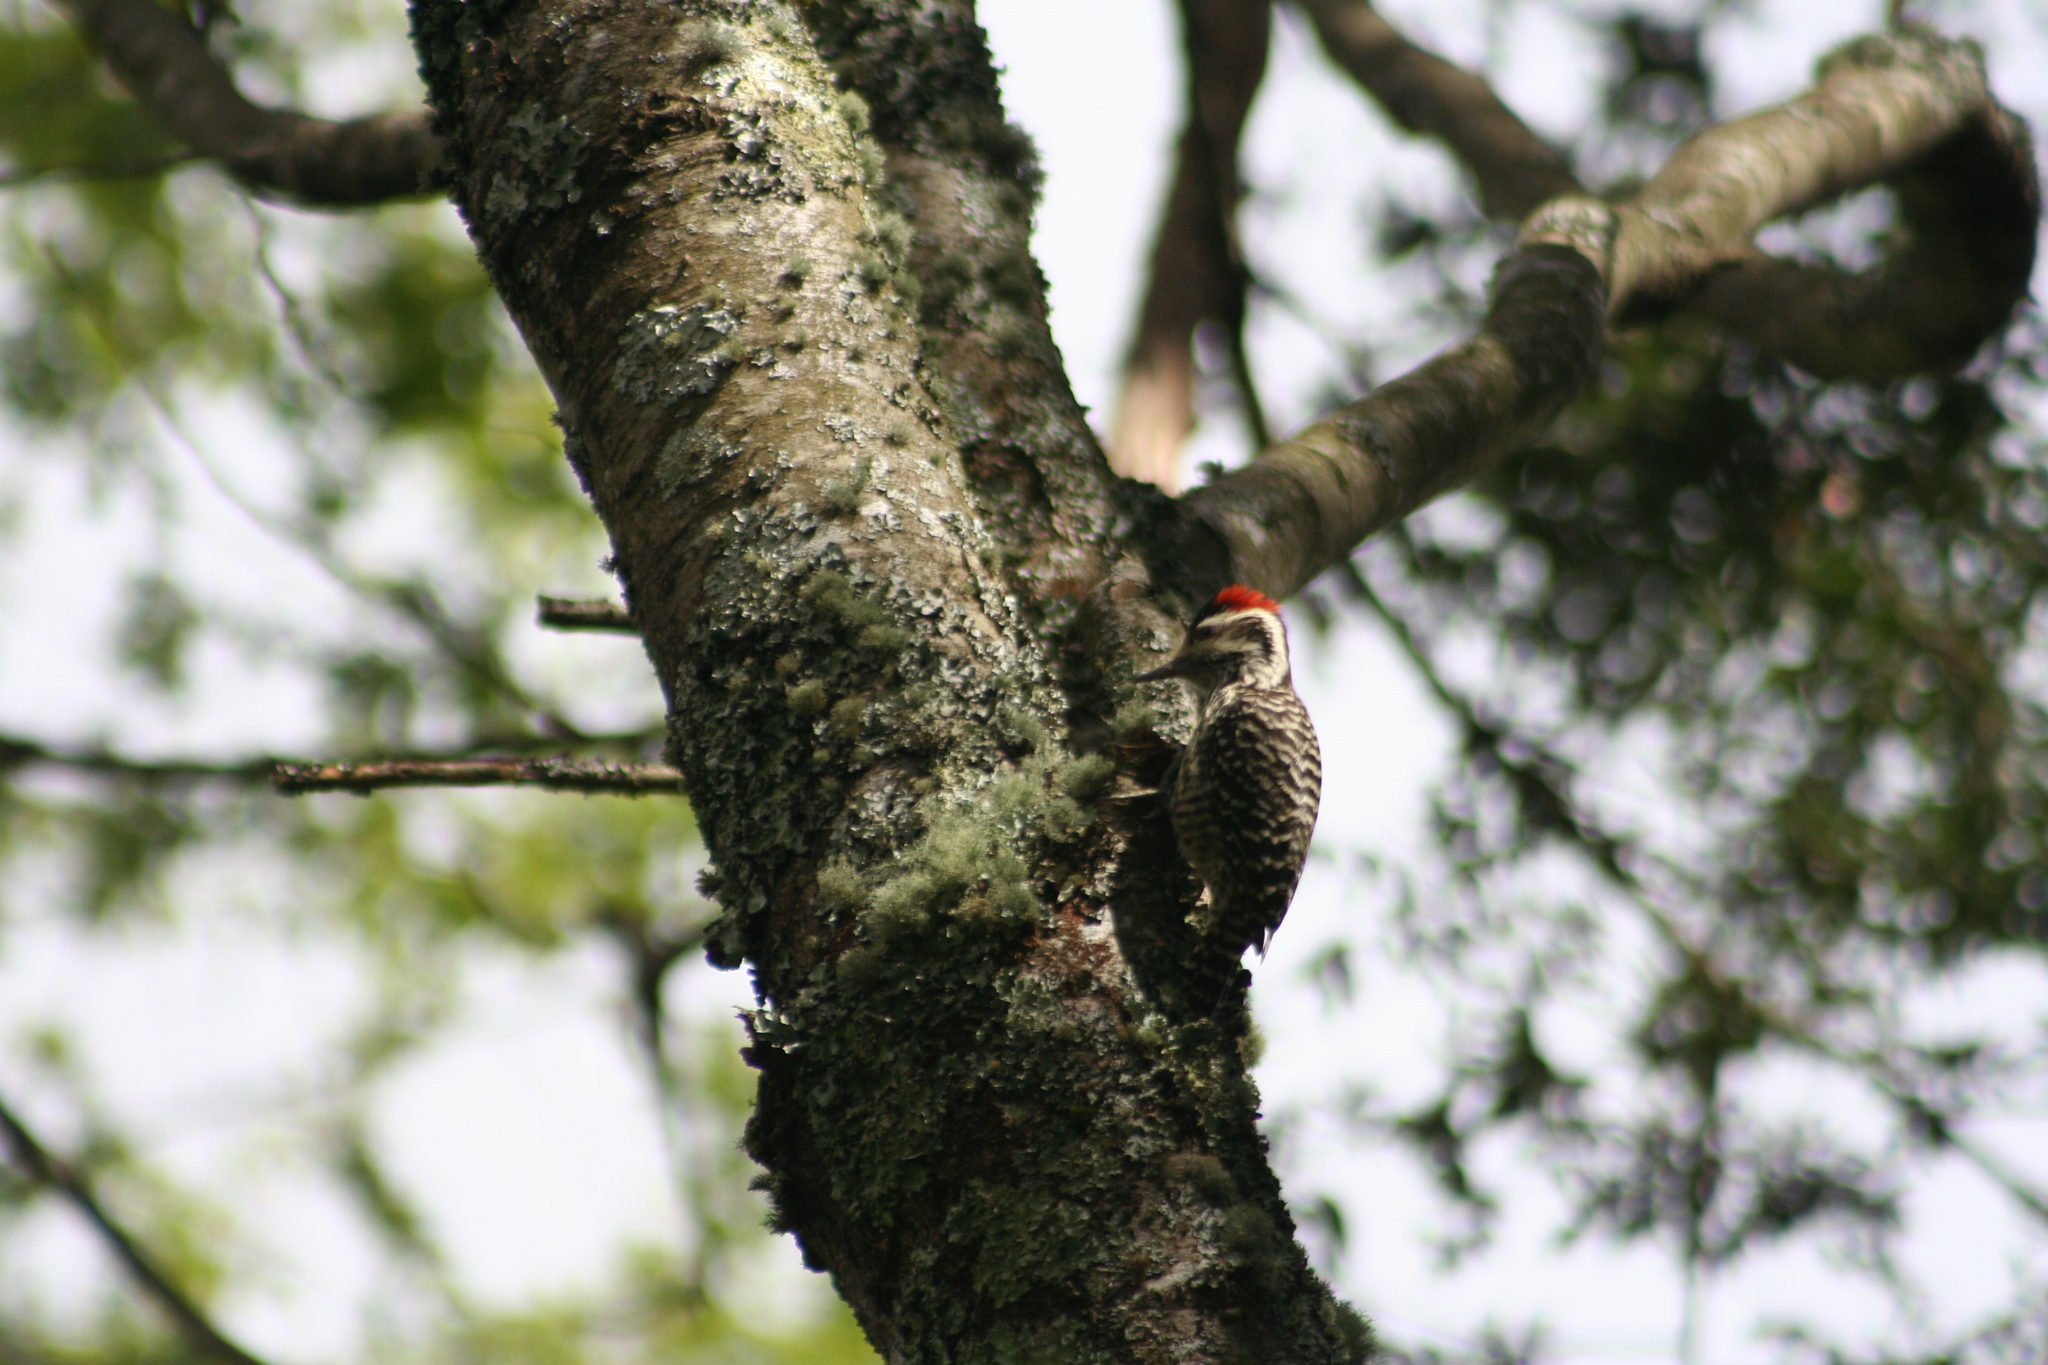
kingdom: Animalia
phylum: Chordata
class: Aves
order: Piciformes
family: Picidae
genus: Veniliornis
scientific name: Veniliornis lignarius
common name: Striped woodpecker
